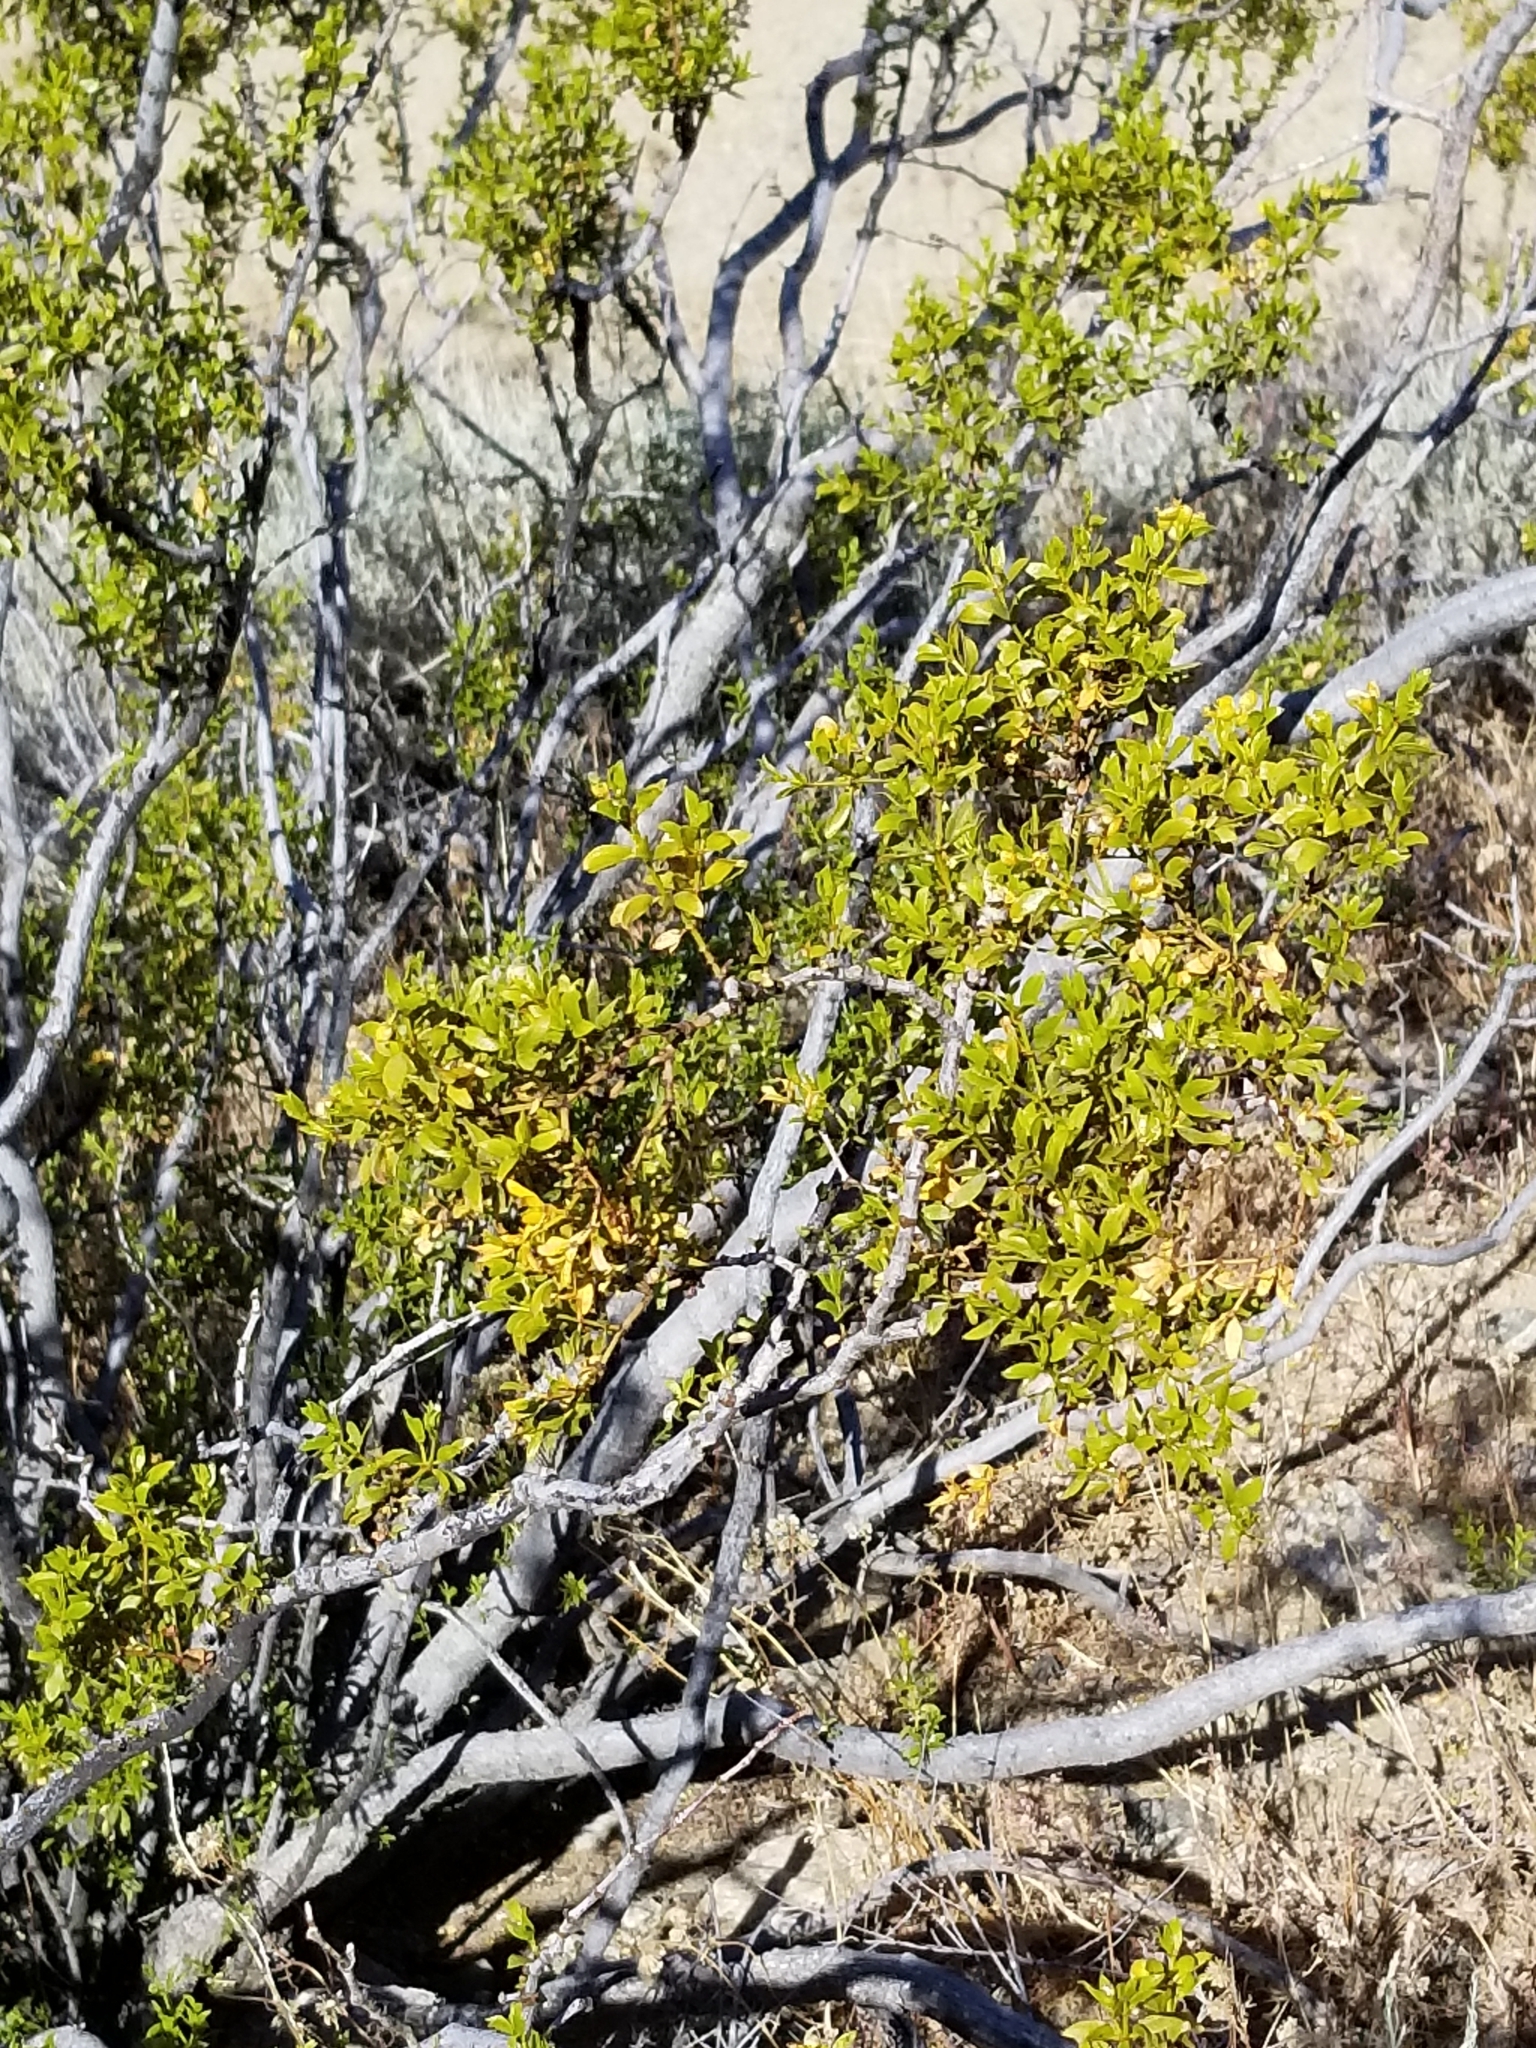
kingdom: Plantae
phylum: Tracheophyta
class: Magnoliopsida
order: Zygophyllales
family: Zygophyllaceae
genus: Larrea
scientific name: Larrea tridentata
